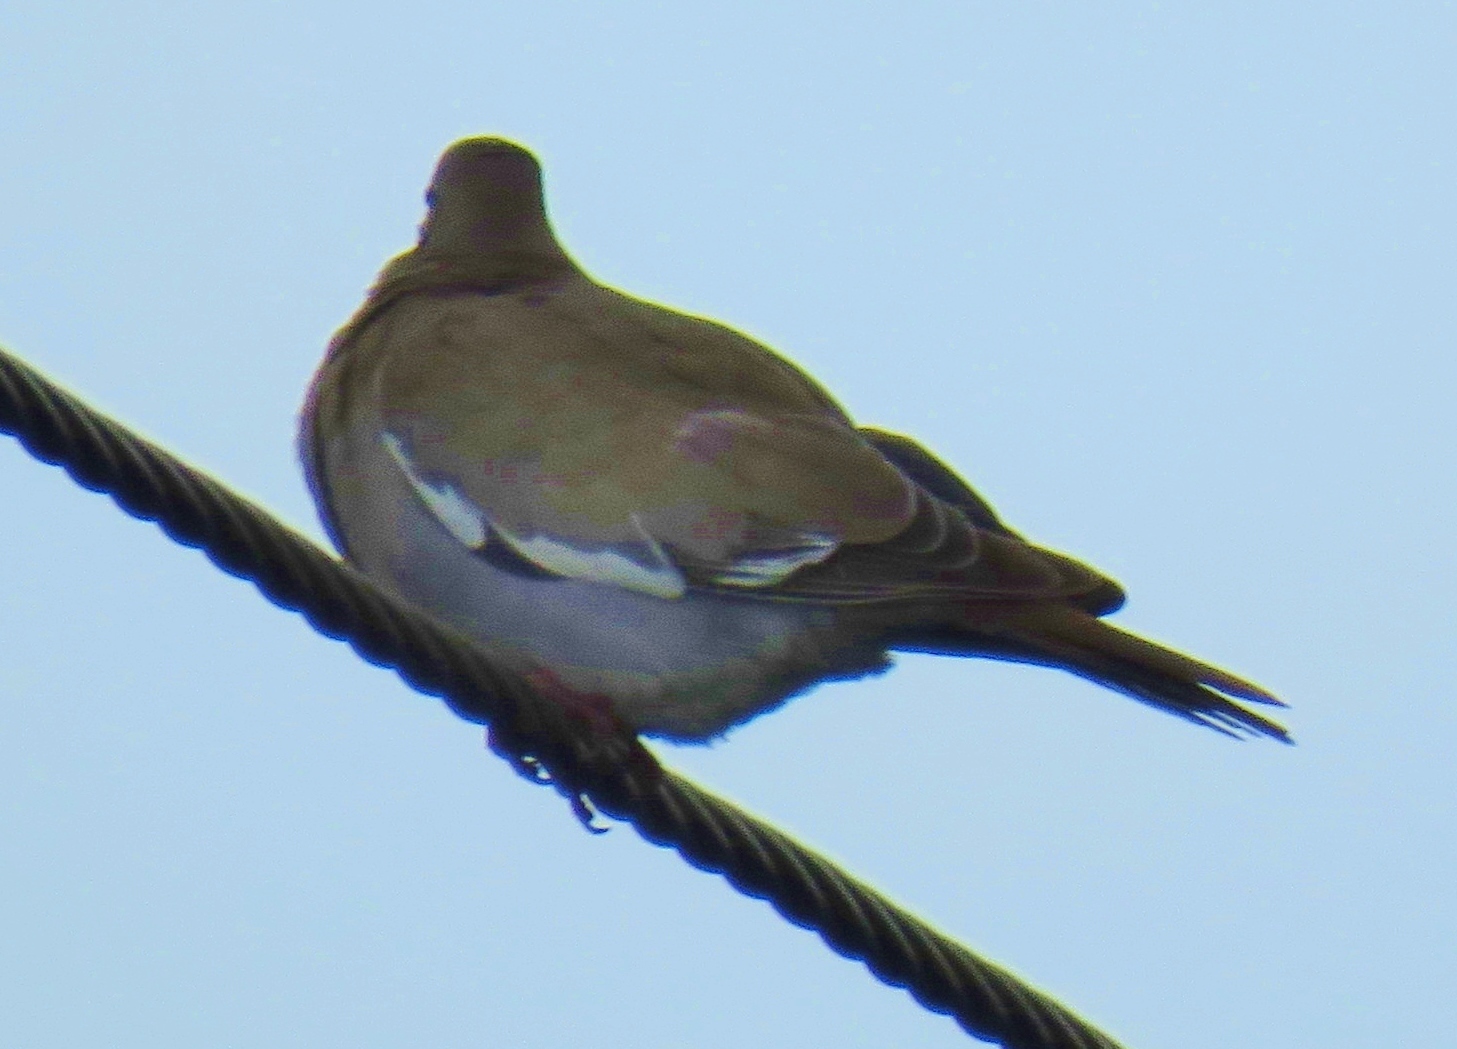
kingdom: Animalia
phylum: Chordata
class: Aves
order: Columbiformes
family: Columbidae
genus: Zenaida
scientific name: Zenaida asiatica
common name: White-winged dove
